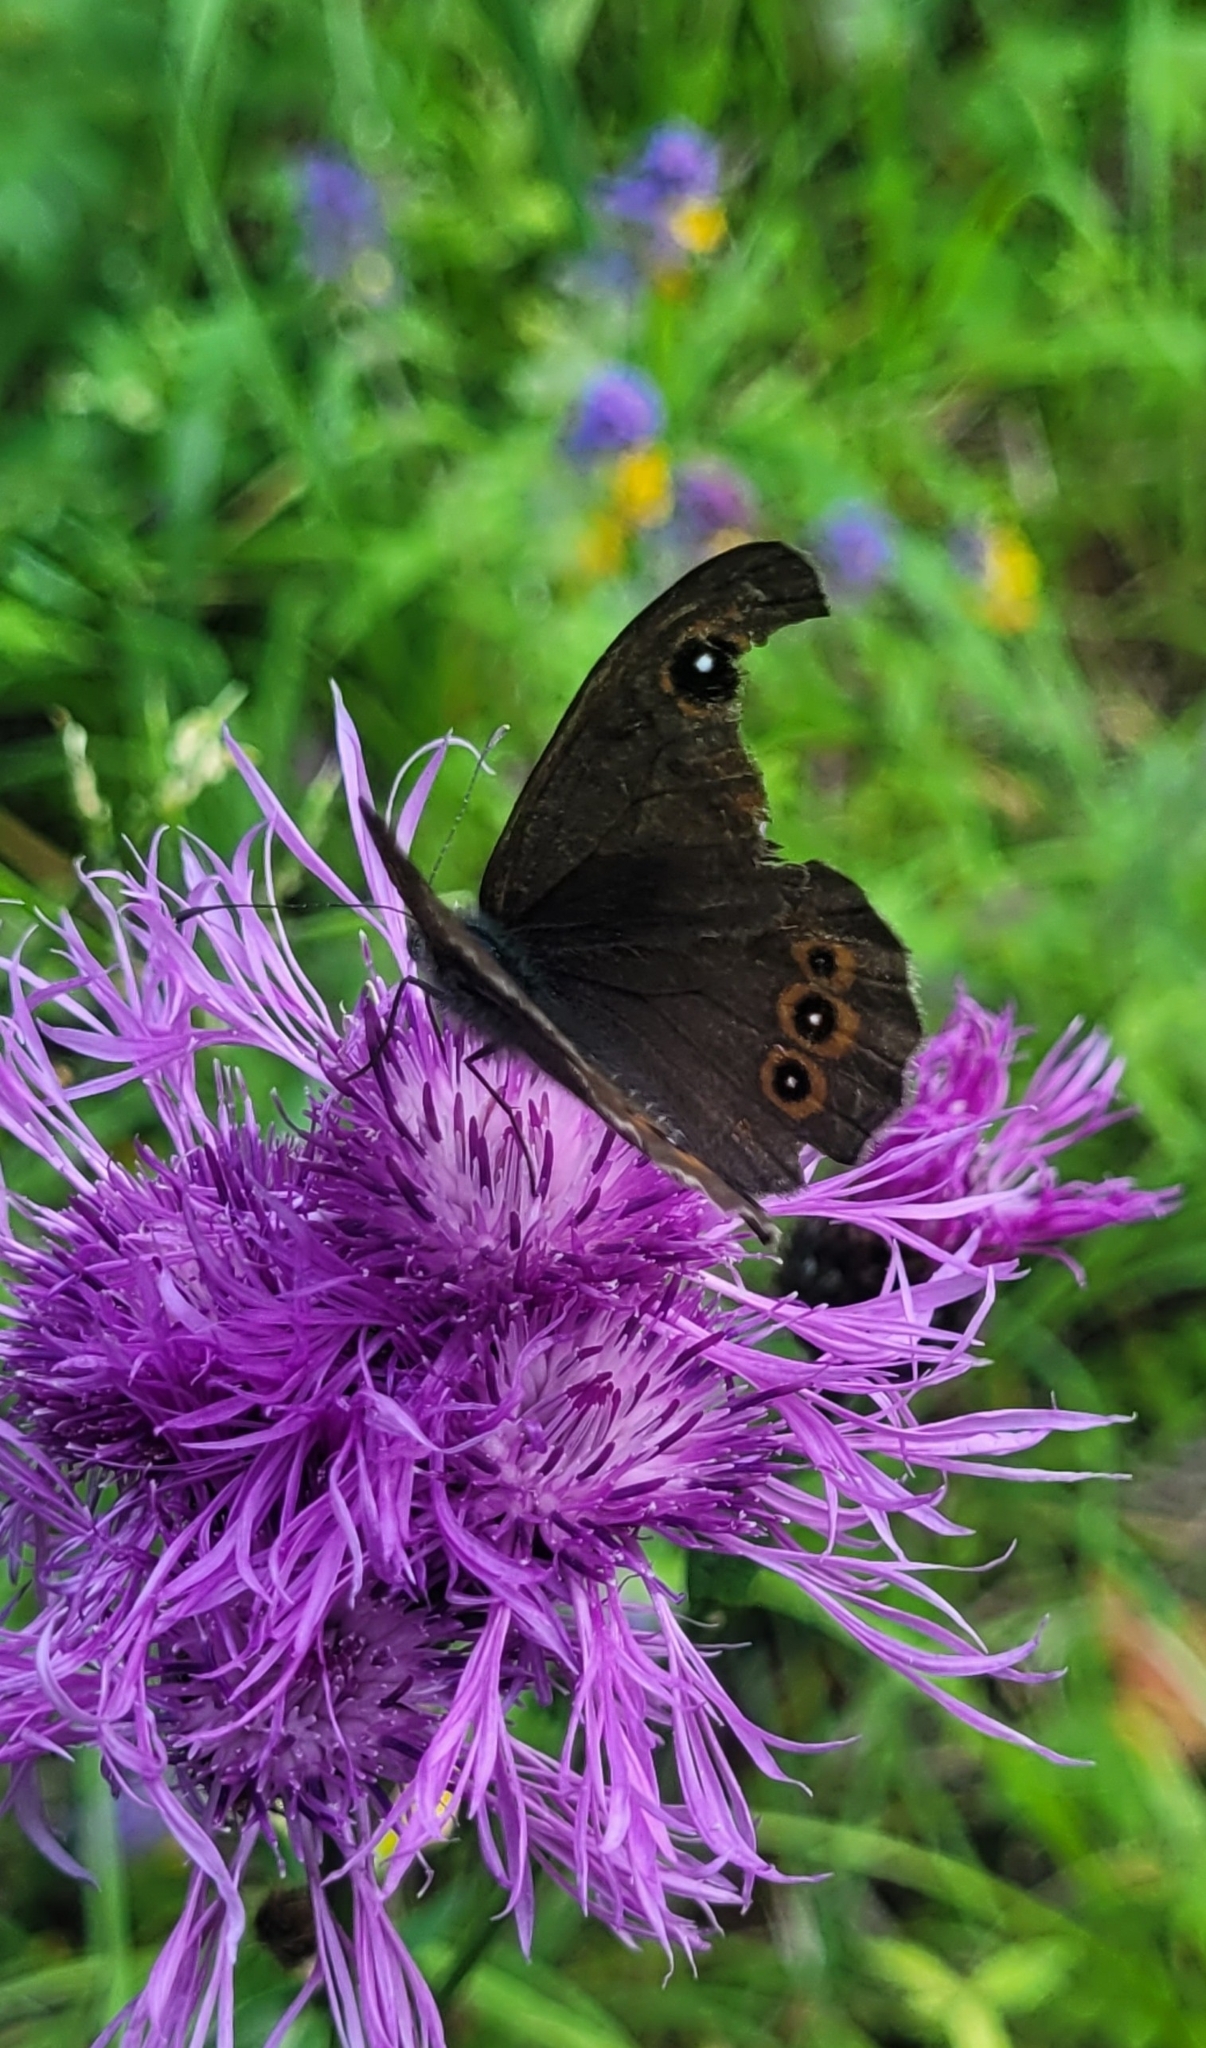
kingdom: Animalia
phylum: Arthropoda
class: Insecta
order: Lepidoptera
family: Nymphalidae
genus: Pararge
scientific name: Pararge Lasiommata maera
